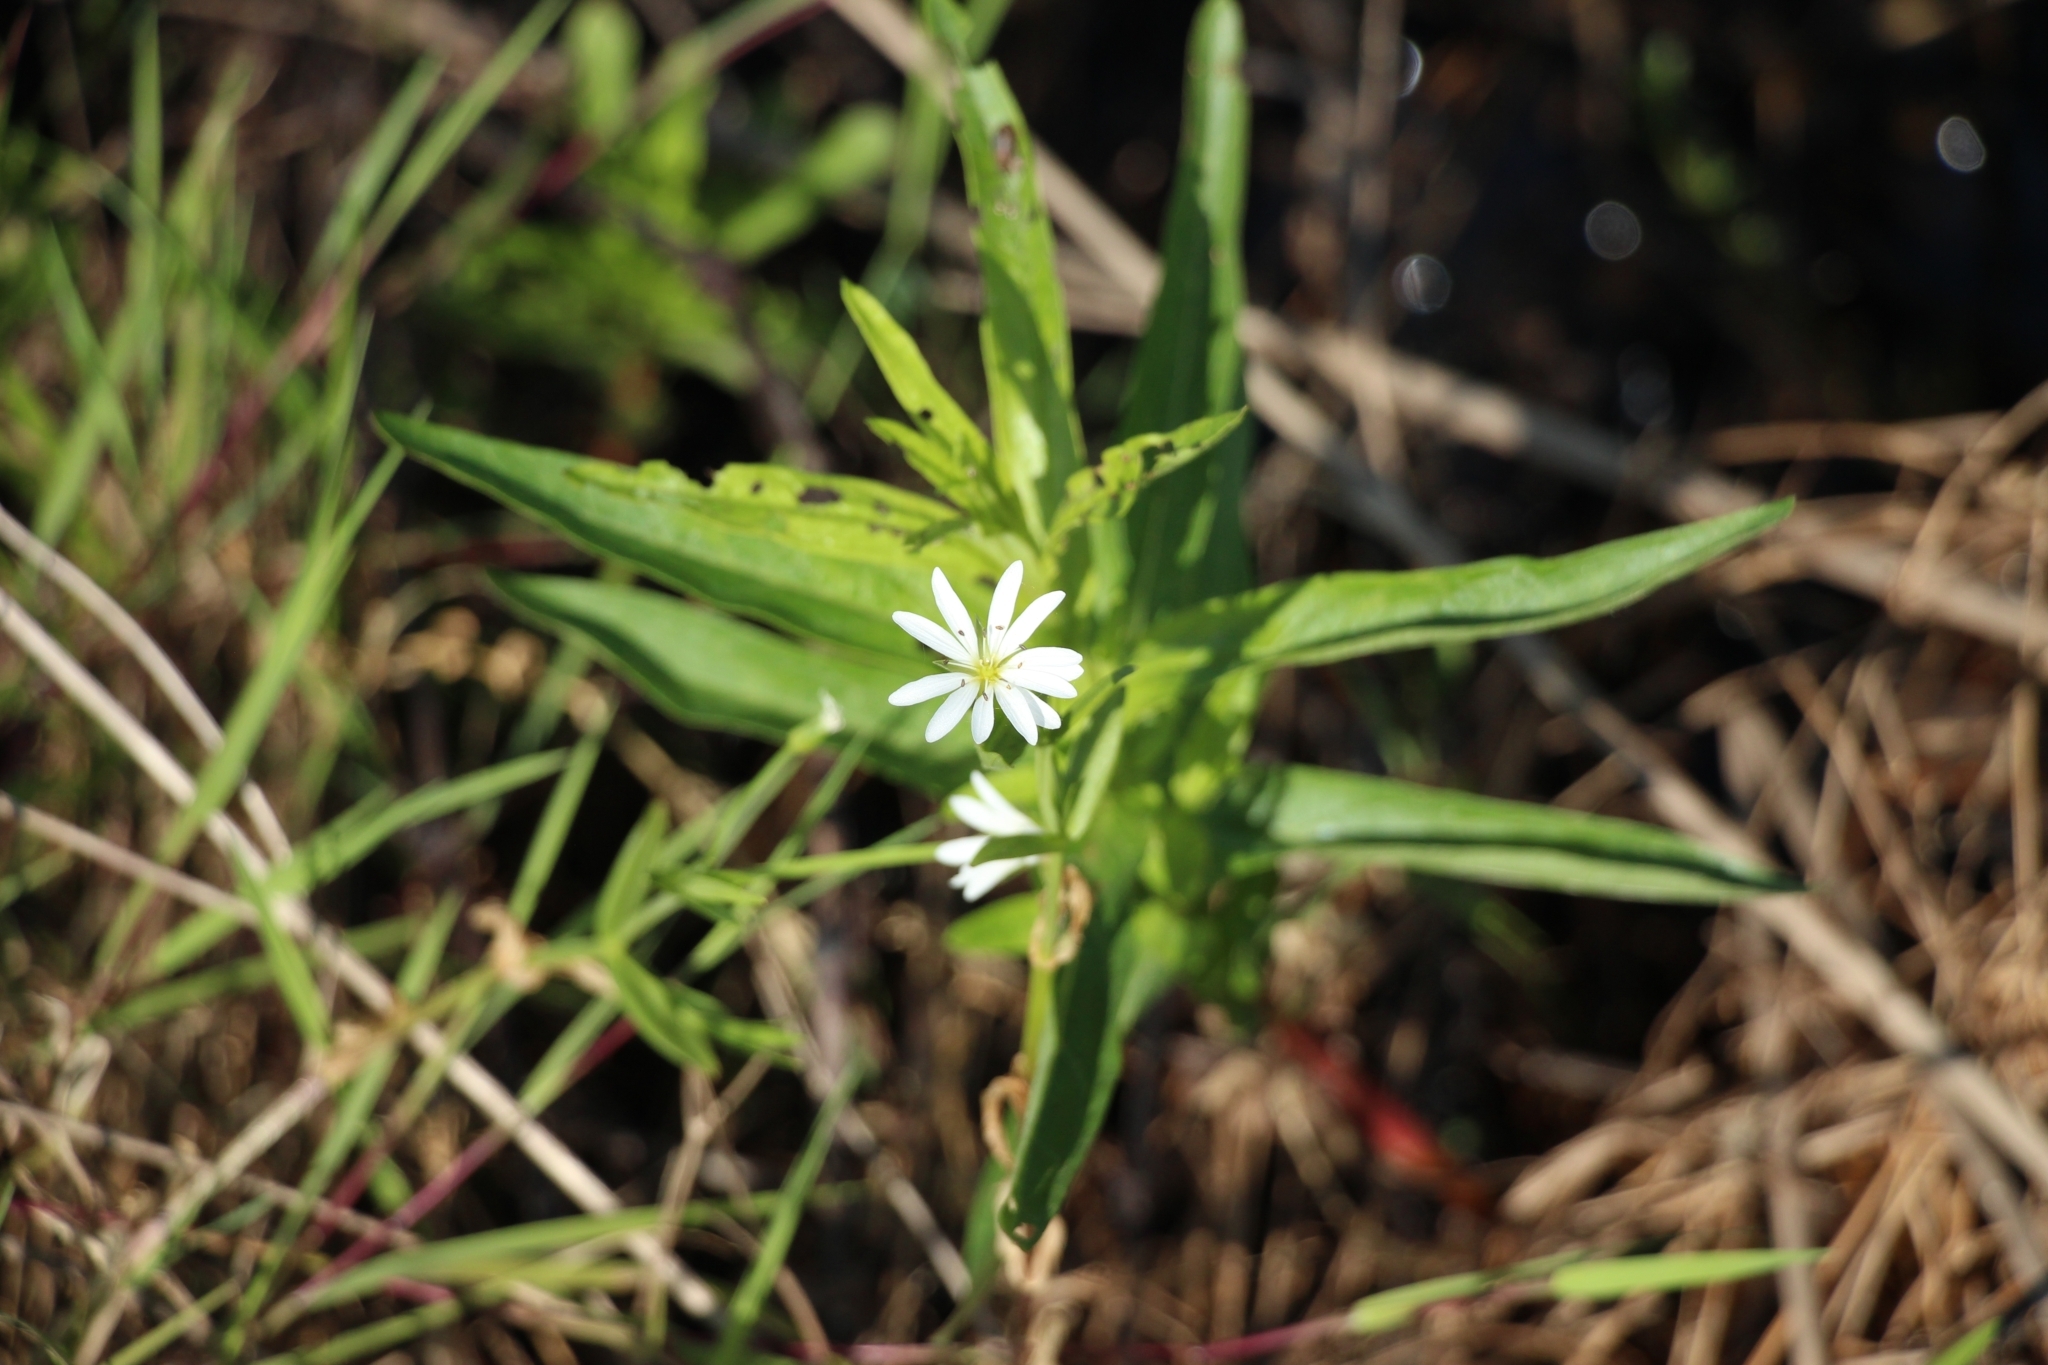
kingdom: Plantae
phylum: Tracheophyta
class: Magnoliopsida
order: Caryophyllales
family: Caryophyllaceae
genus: Stellaria
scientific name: Stellaria palustris
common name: Marsh stitchwort
